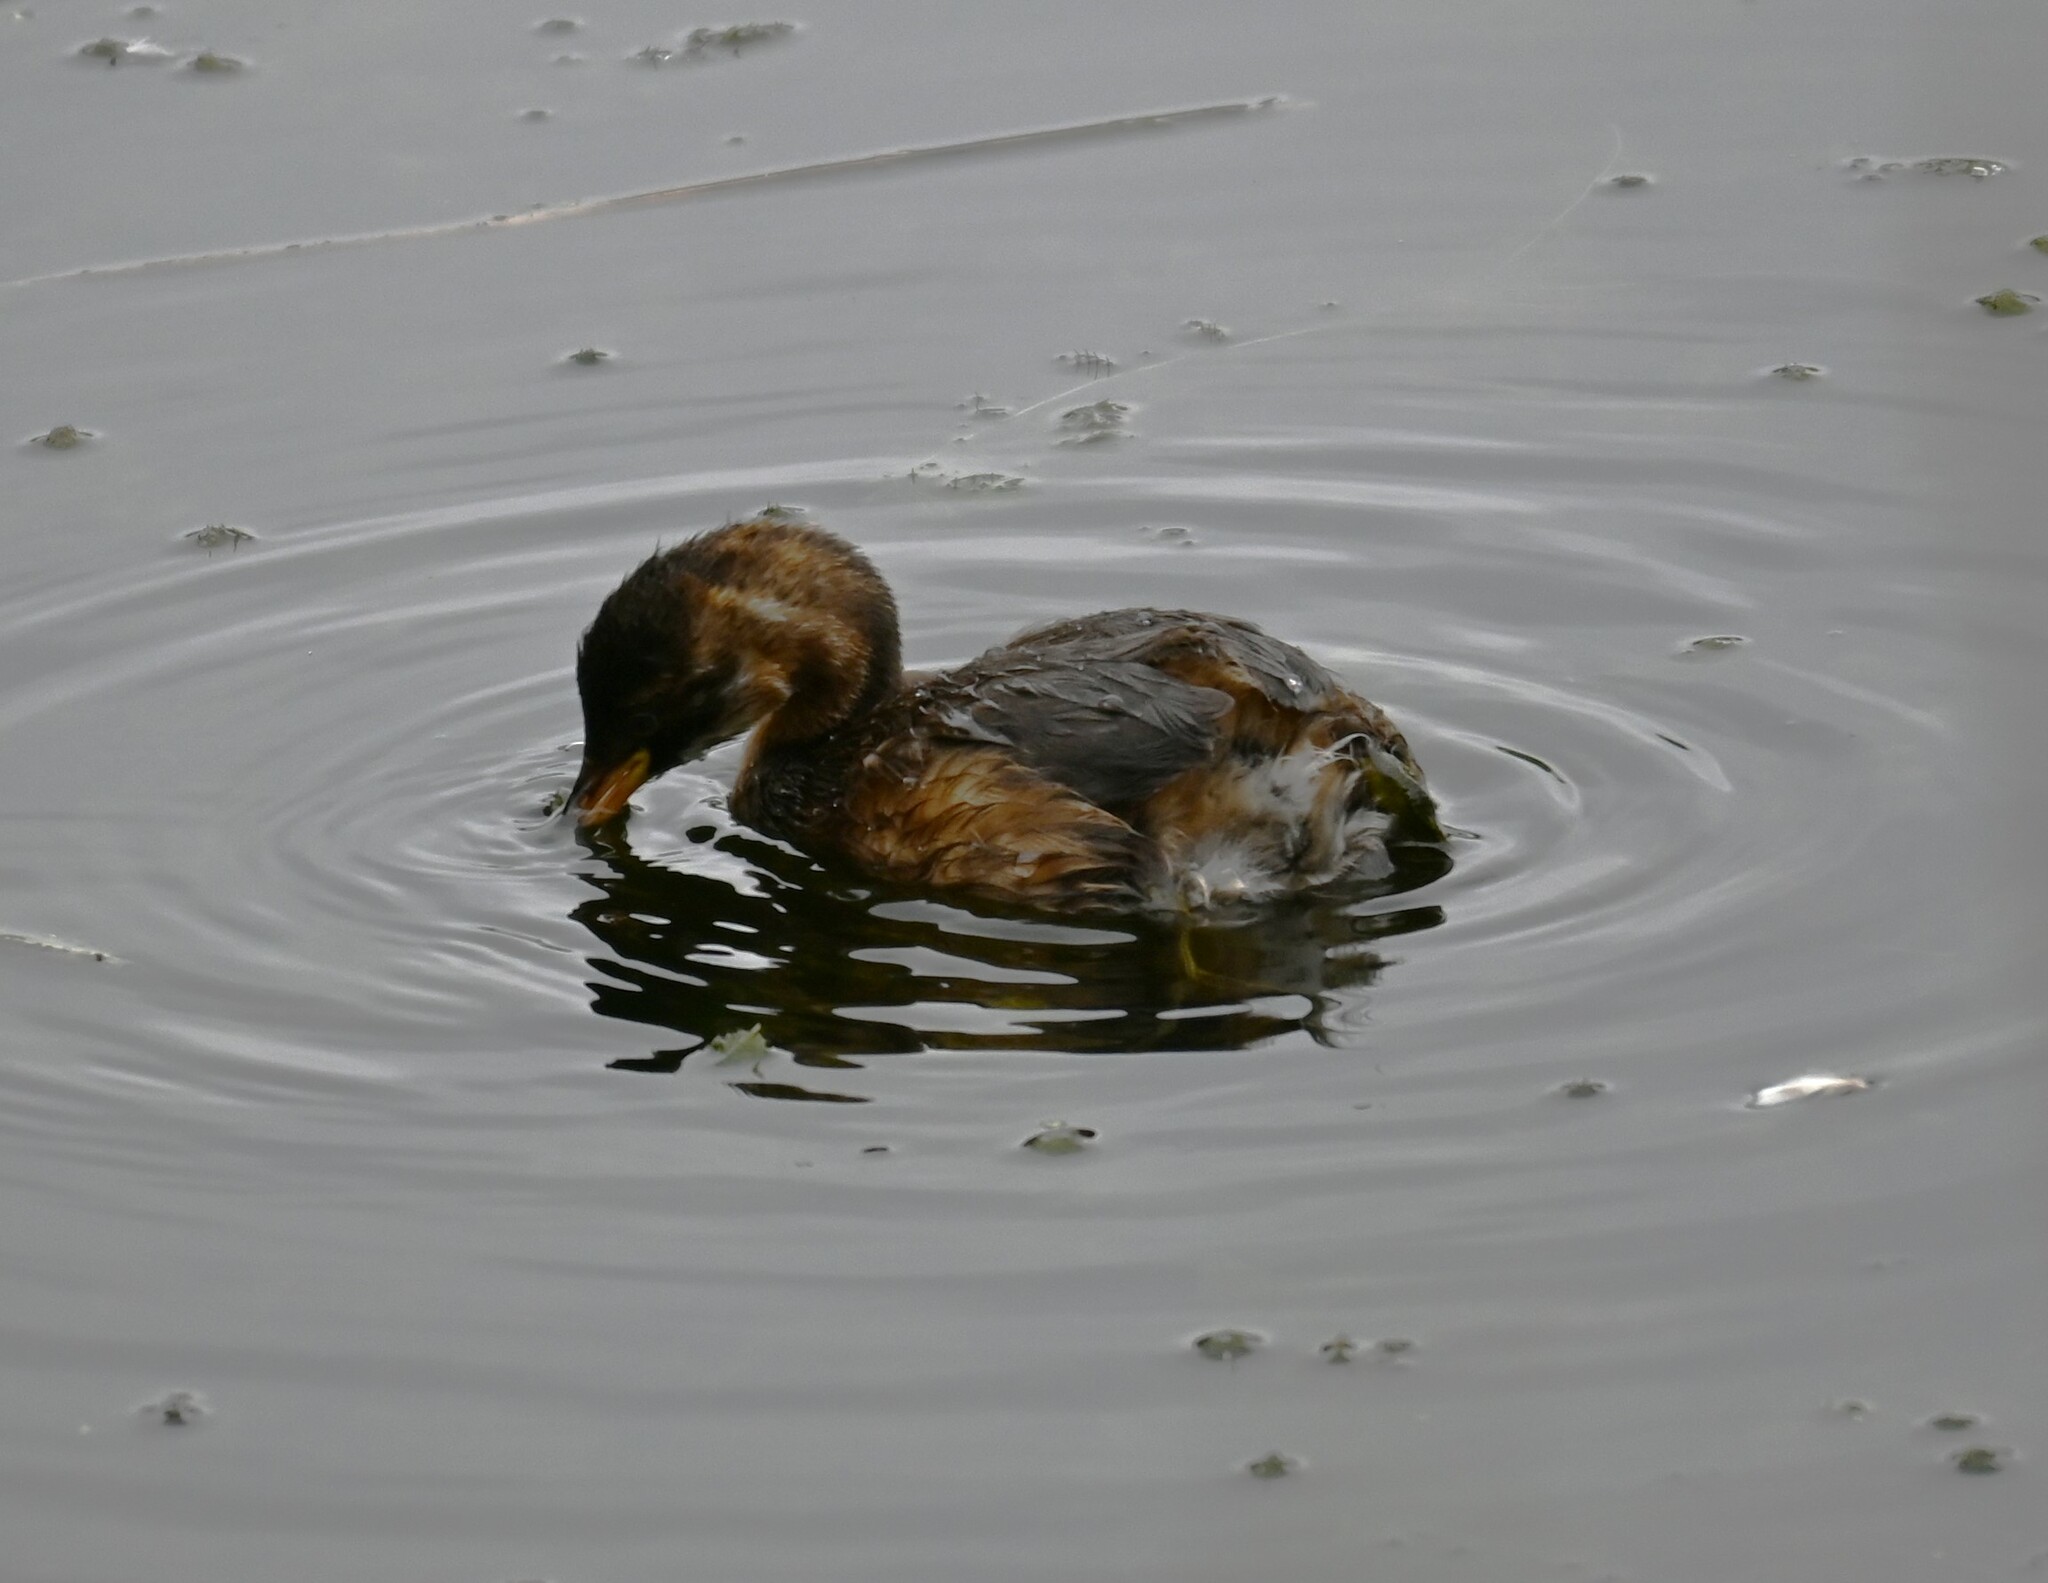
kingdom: Animalia
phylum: Chordata
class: Aves
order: Podicipediformes
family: Podicipedidae
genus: Tachybaptus
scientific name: Tachybaptus ruficollis
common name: Little grebe
